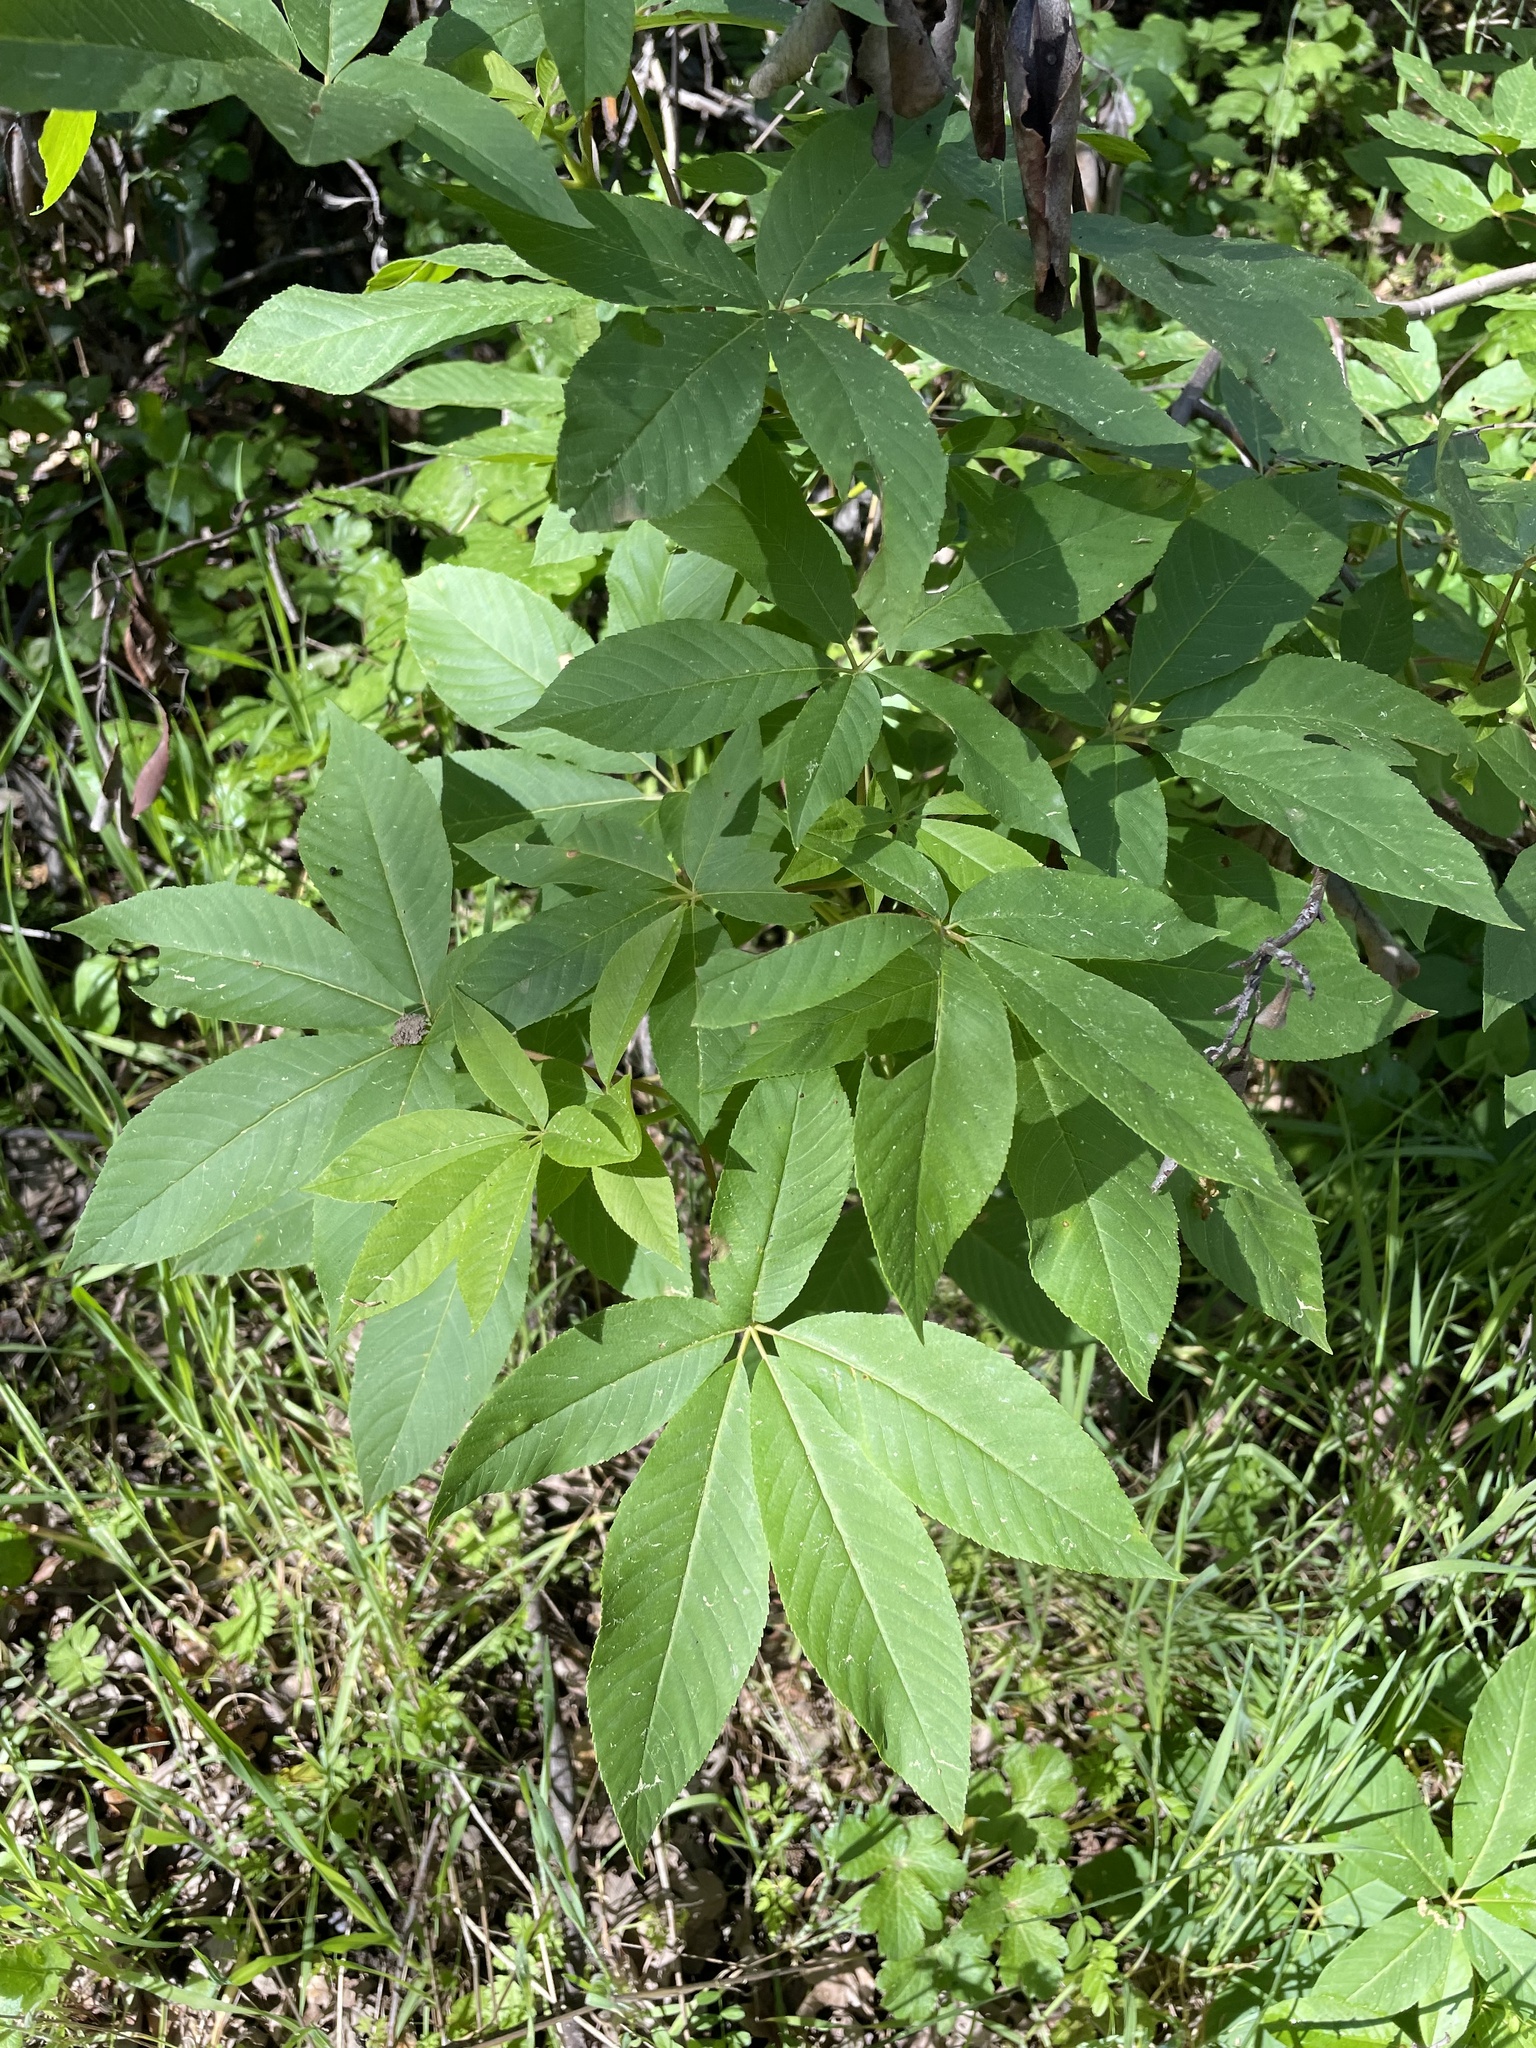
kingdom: Plantae
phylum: Tracheophyta
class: Magnoliopsida
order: Sapindales
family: Sapindaceae
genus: Aesculus
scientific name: Aesculus californica
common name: California buckeye
